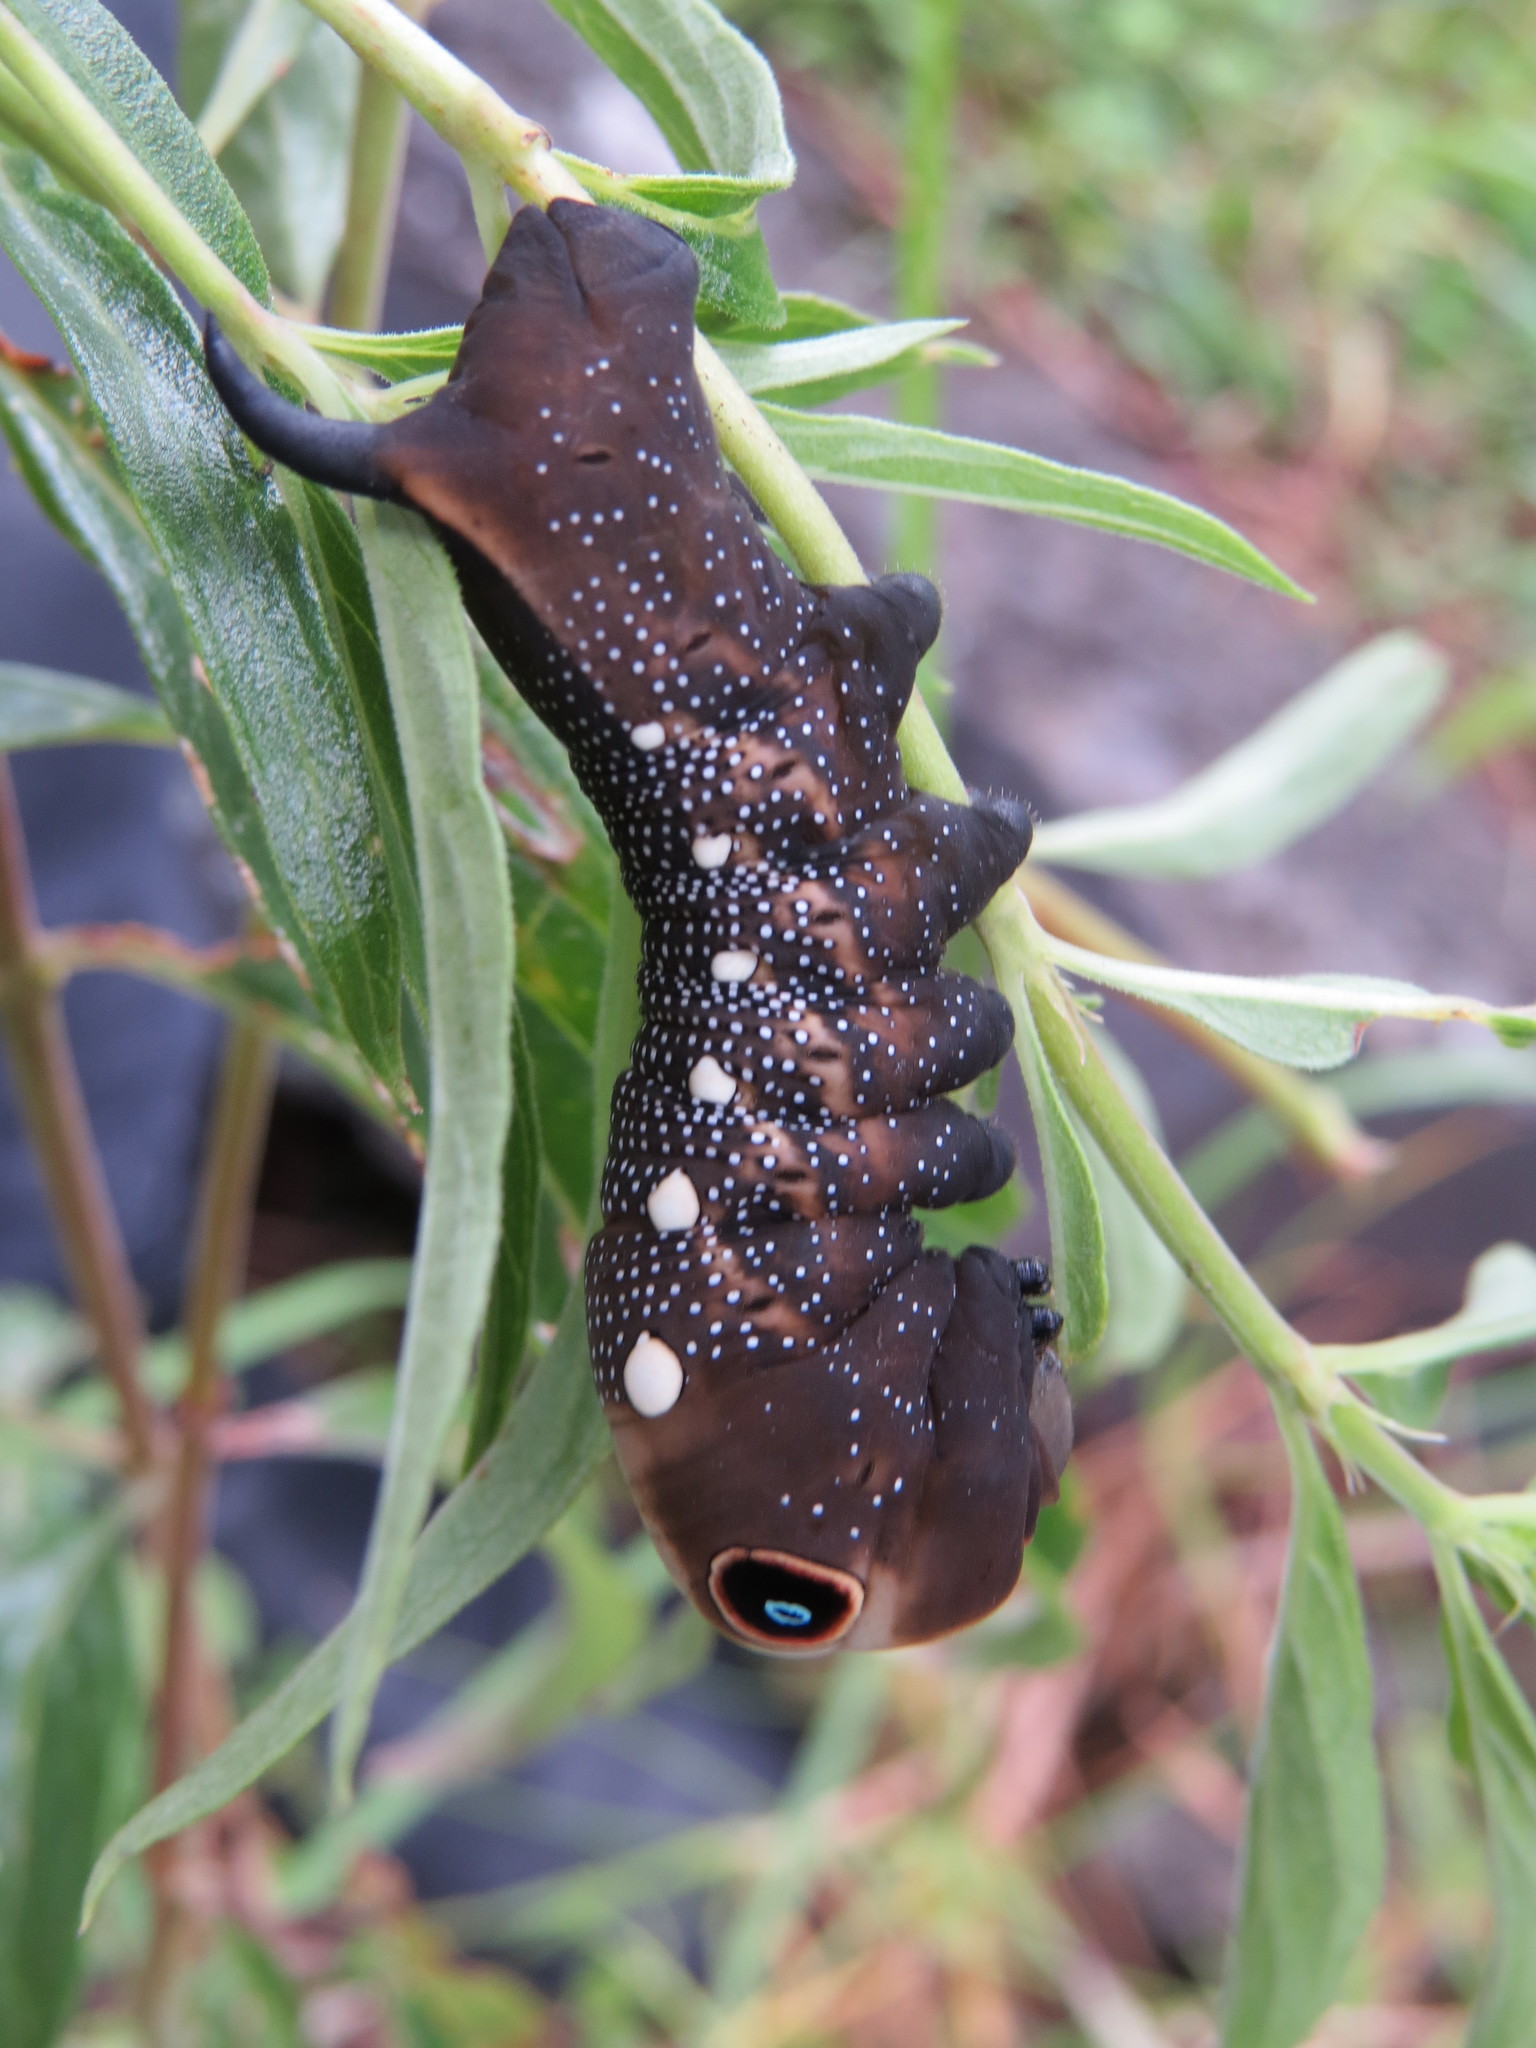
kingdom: Animalia
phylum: Arthropoda
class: Insecta
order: Lepidoptera
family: Sphingidae
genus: Xylophanes
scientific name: Xylophanes falco
